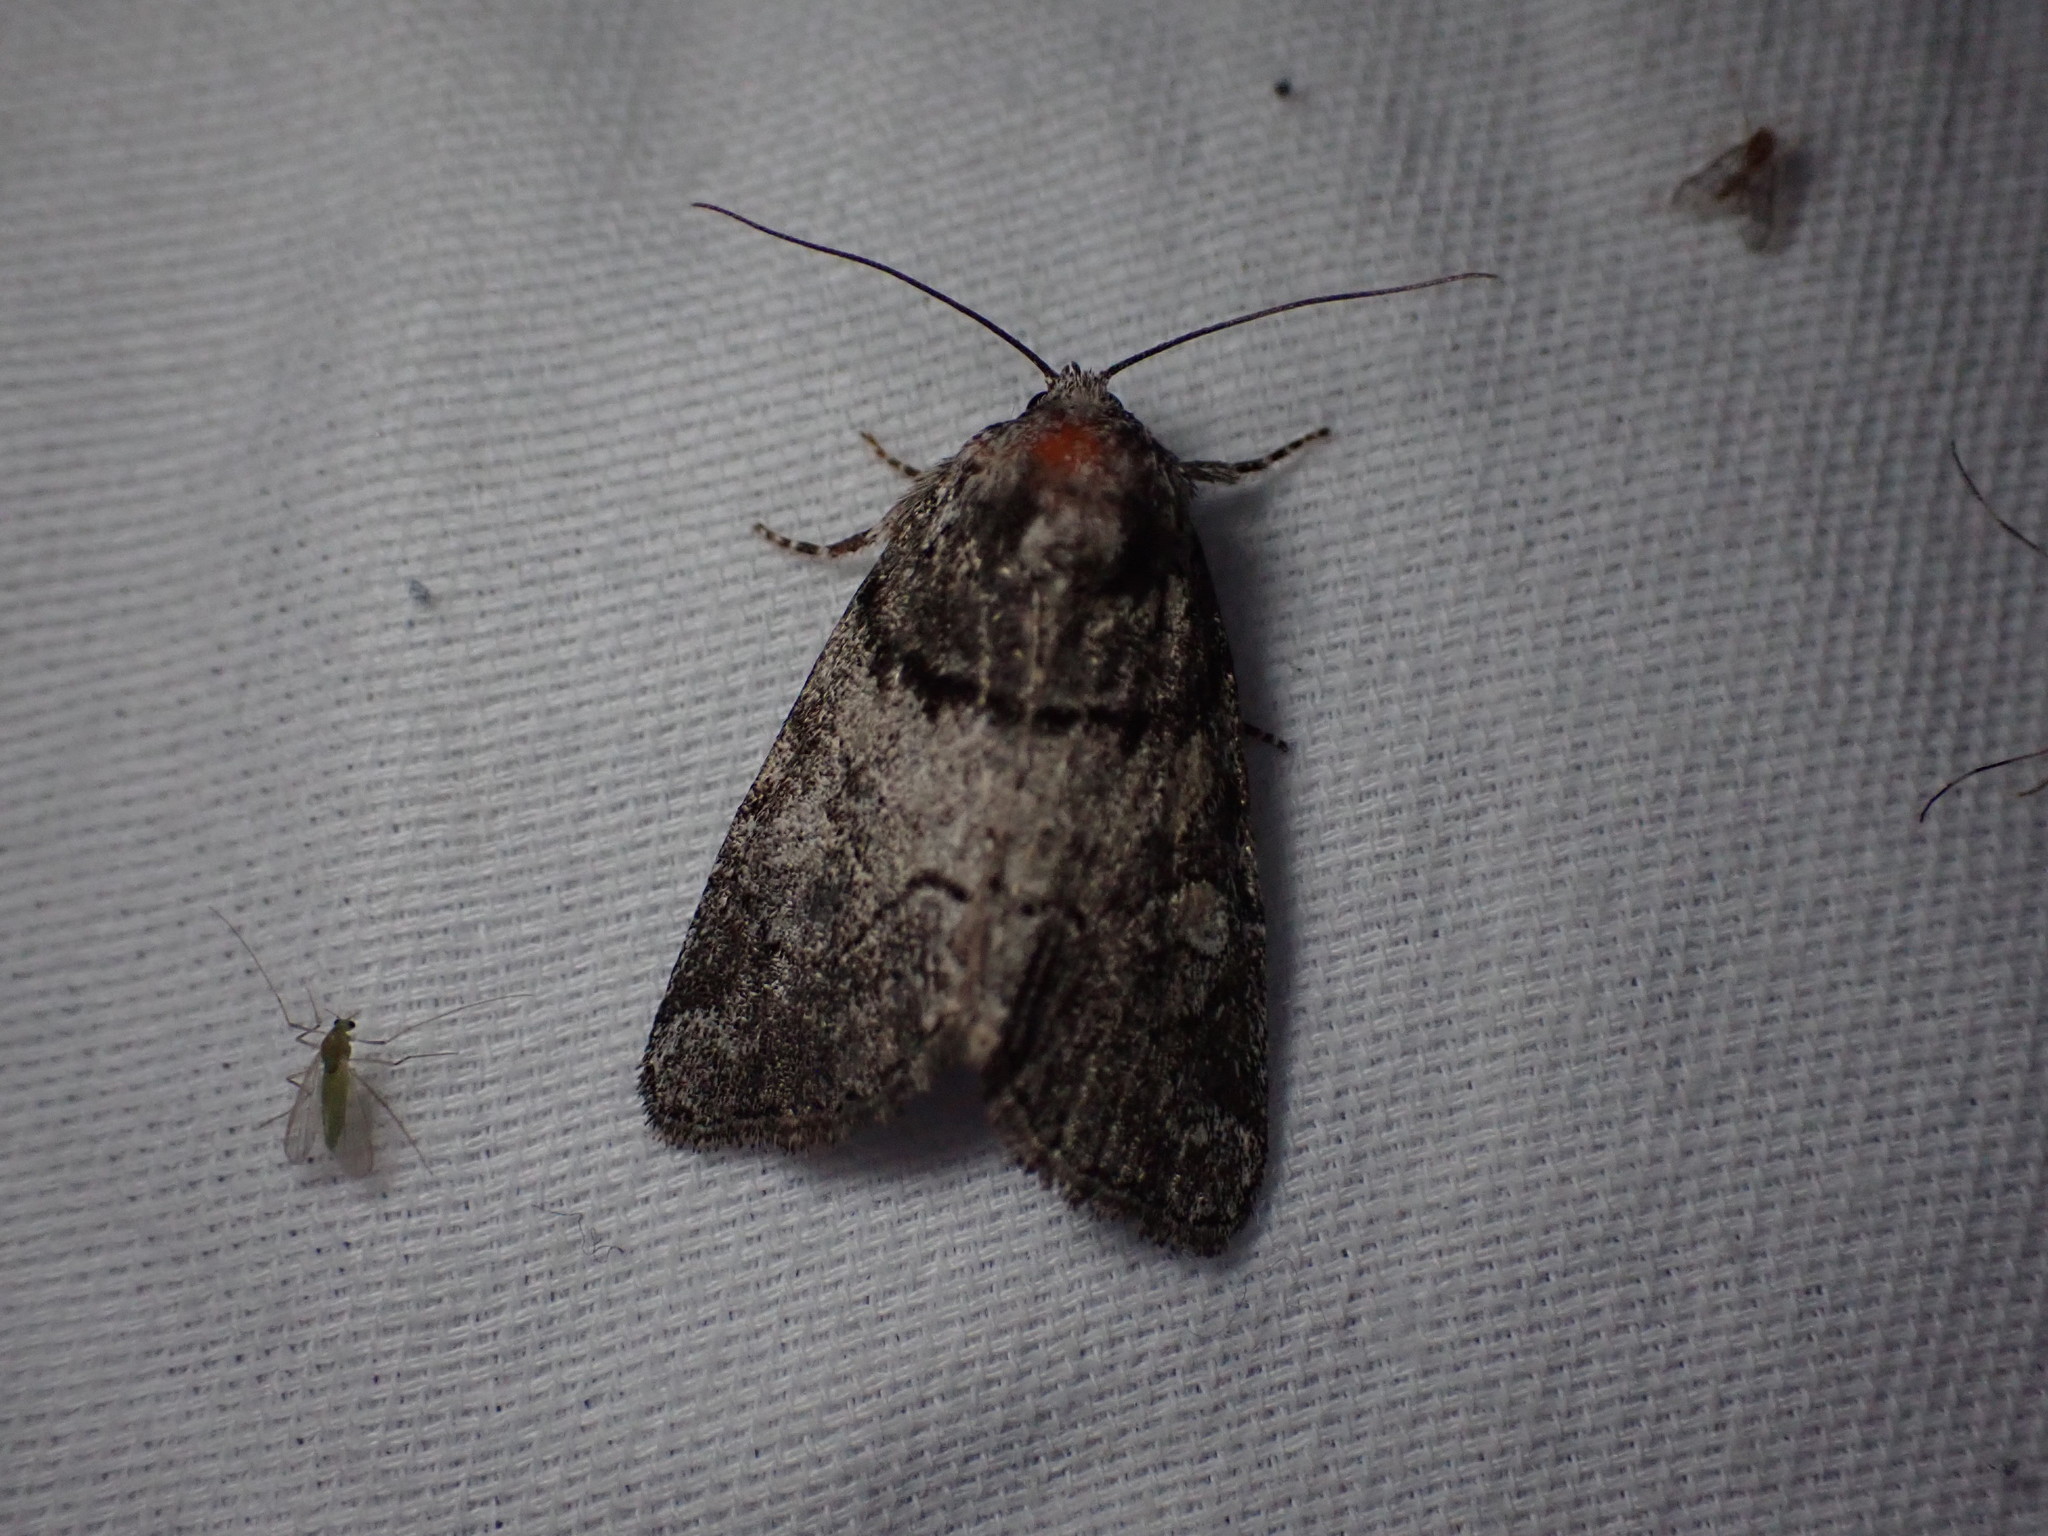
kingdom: Animalia
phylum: Arthropoda
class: Insecta
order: Lepidoptera
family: Noctuidae
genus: Cosmia
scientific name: Cosmia praeacuta
